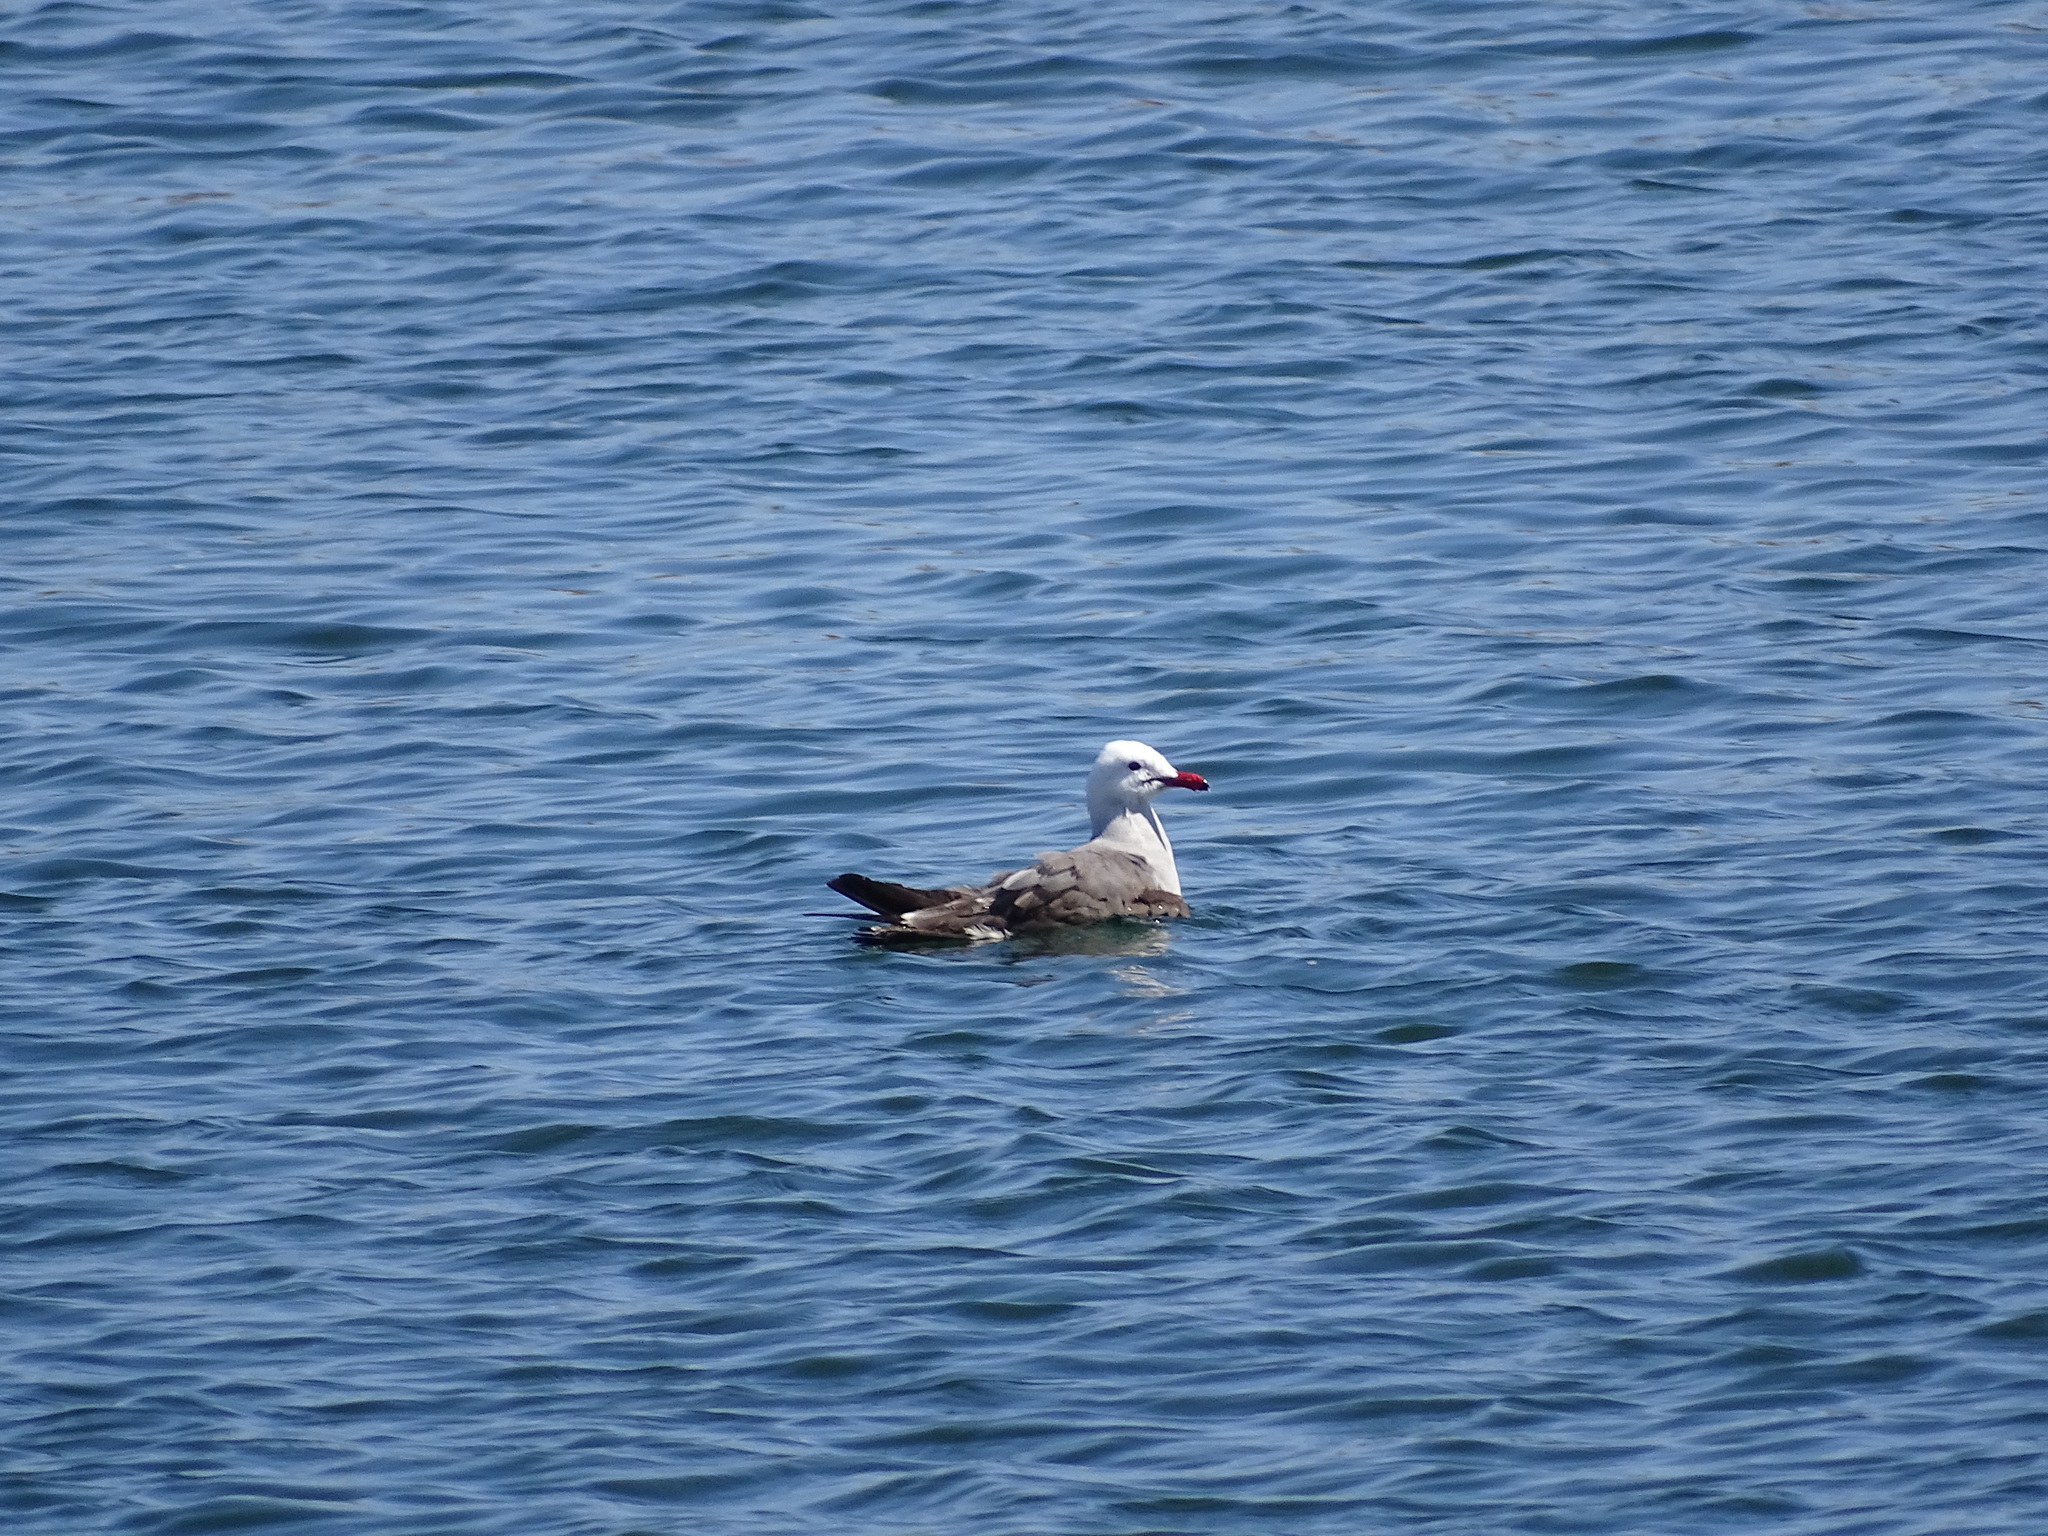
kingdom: Animalia
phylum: Chordata
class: Aves
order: Charadriiformes
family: Laridae
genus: Larus
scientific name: Larus heermanni
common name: Heermann's gull
